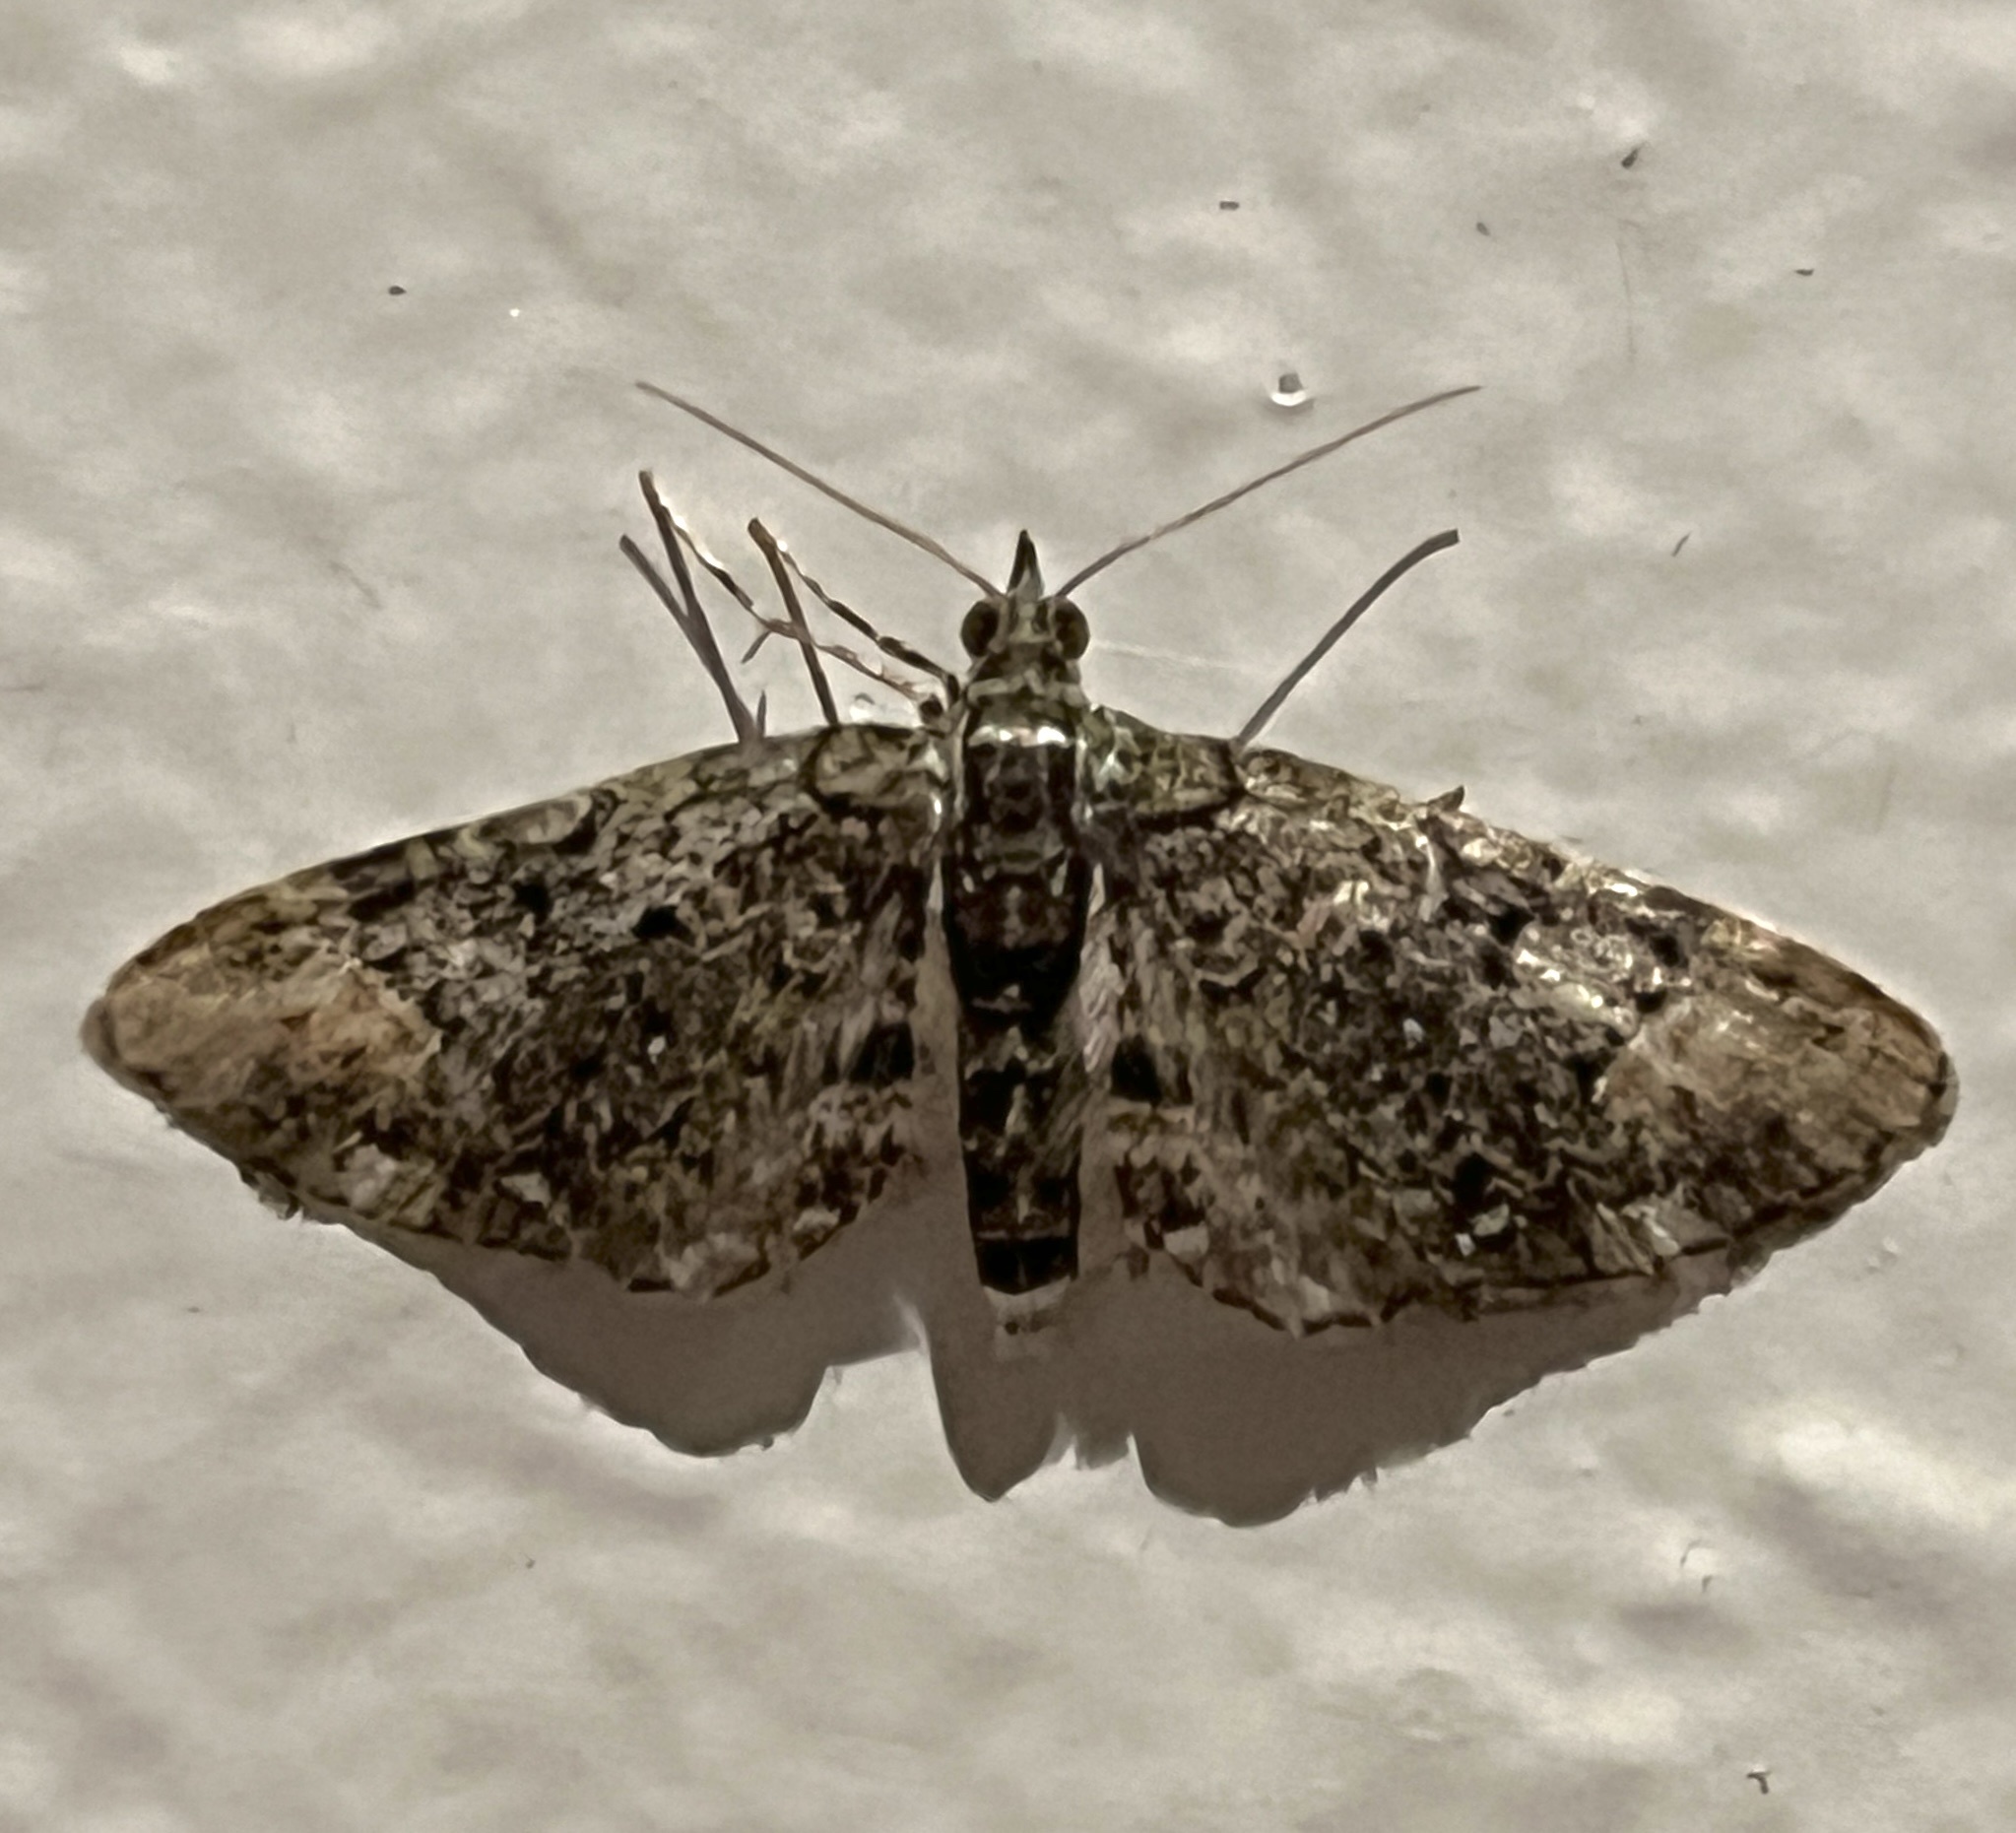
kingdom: Animalia
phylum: Arthropoda
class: Insecta
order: Lepidoptera
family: Geometridae
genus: Myrioblephara
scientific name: Myrioblephara muscosa
